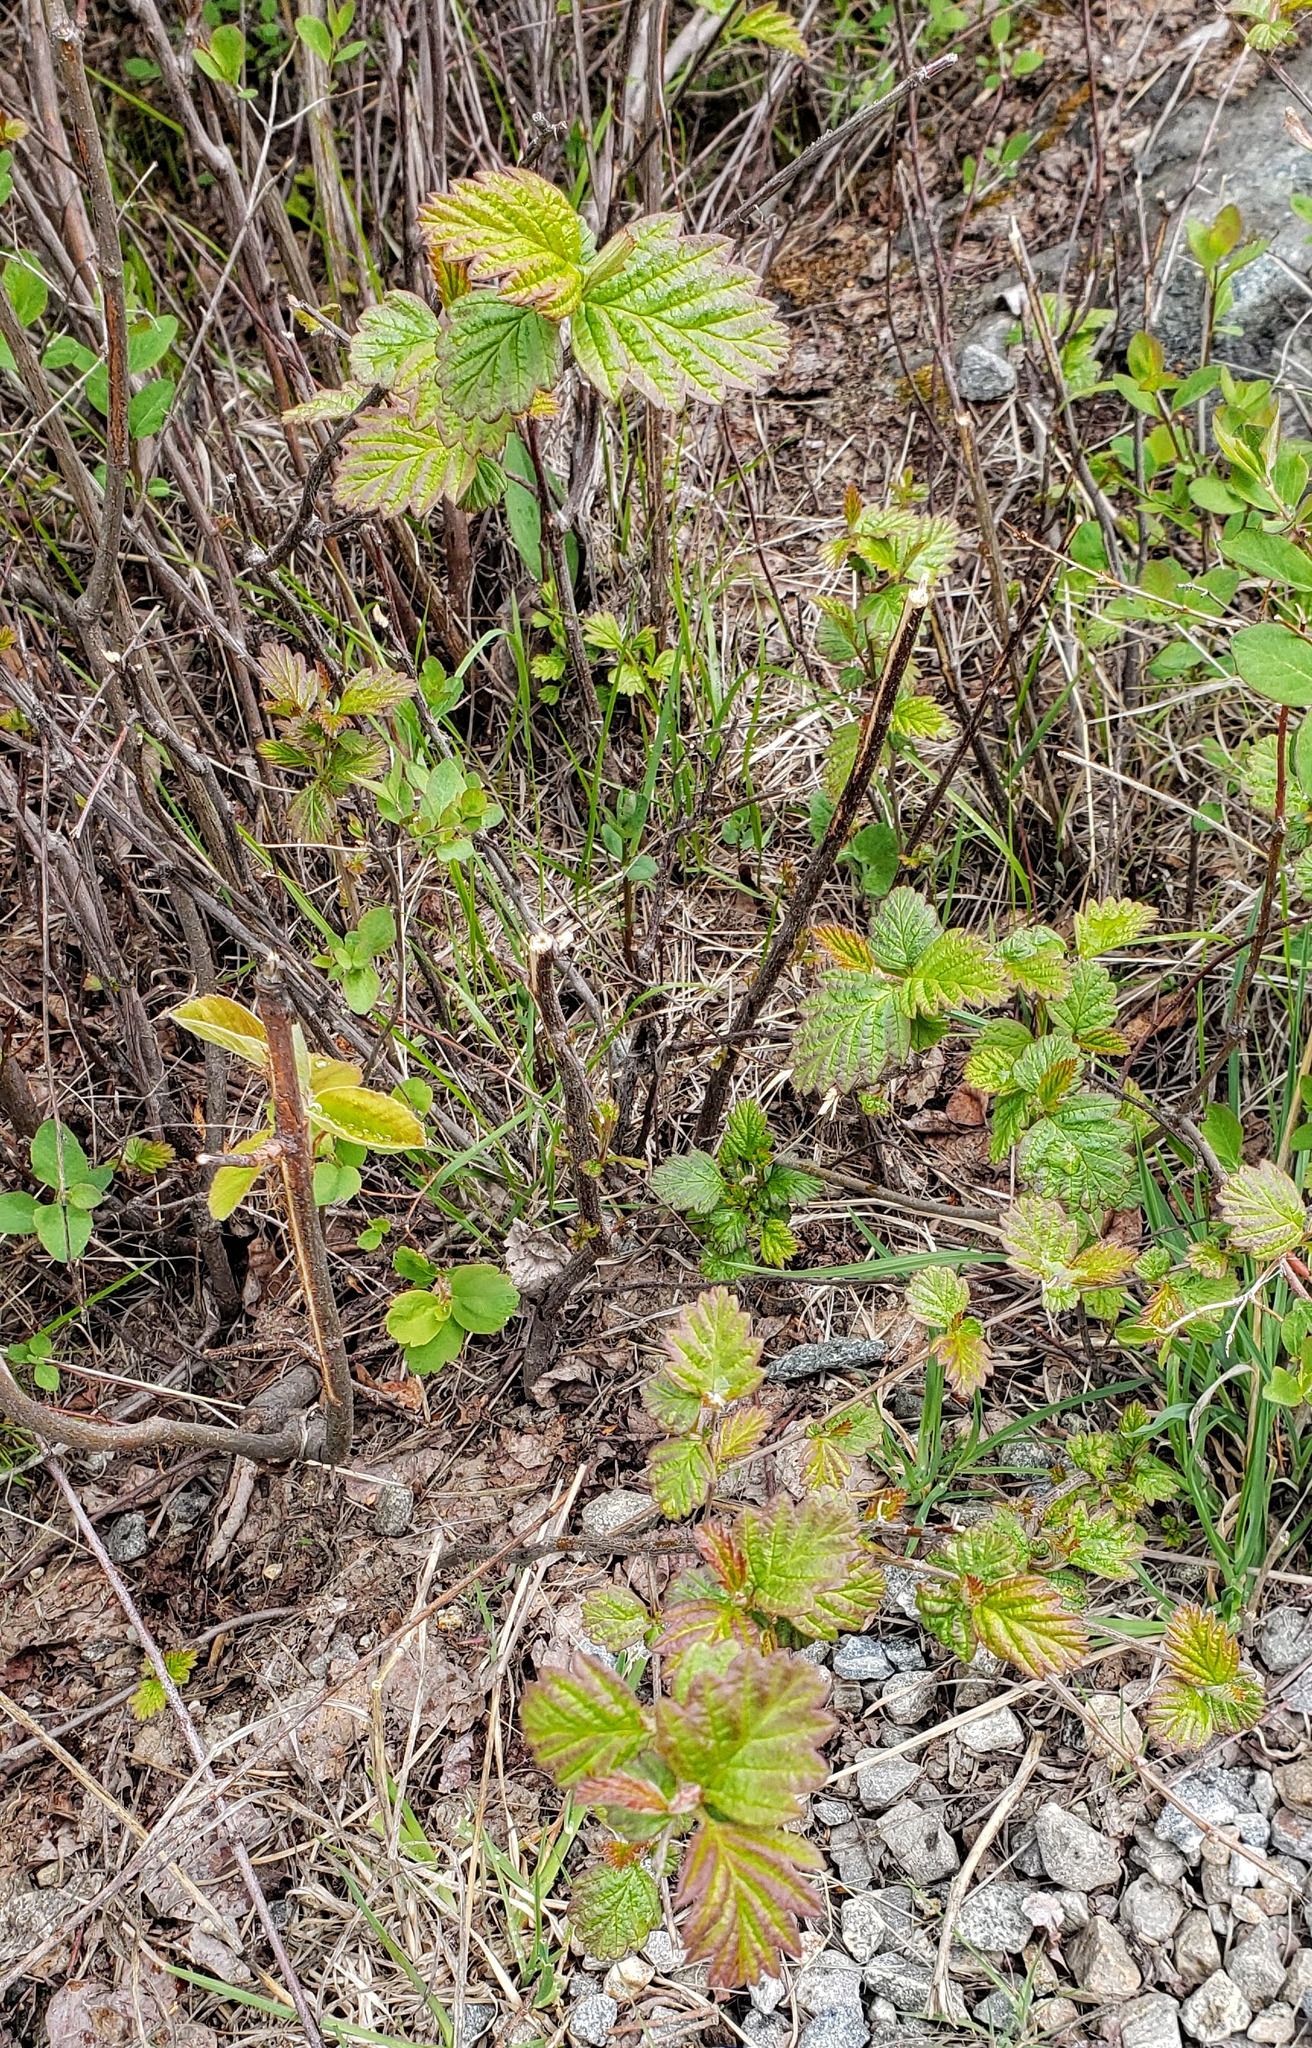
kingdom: Plantae
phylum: Tracheophyta
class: Magnoliopsida
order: Rosales
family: Rosaceae
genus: Holodiscus
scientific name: Holodiscus discolor
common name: Oceanspray
